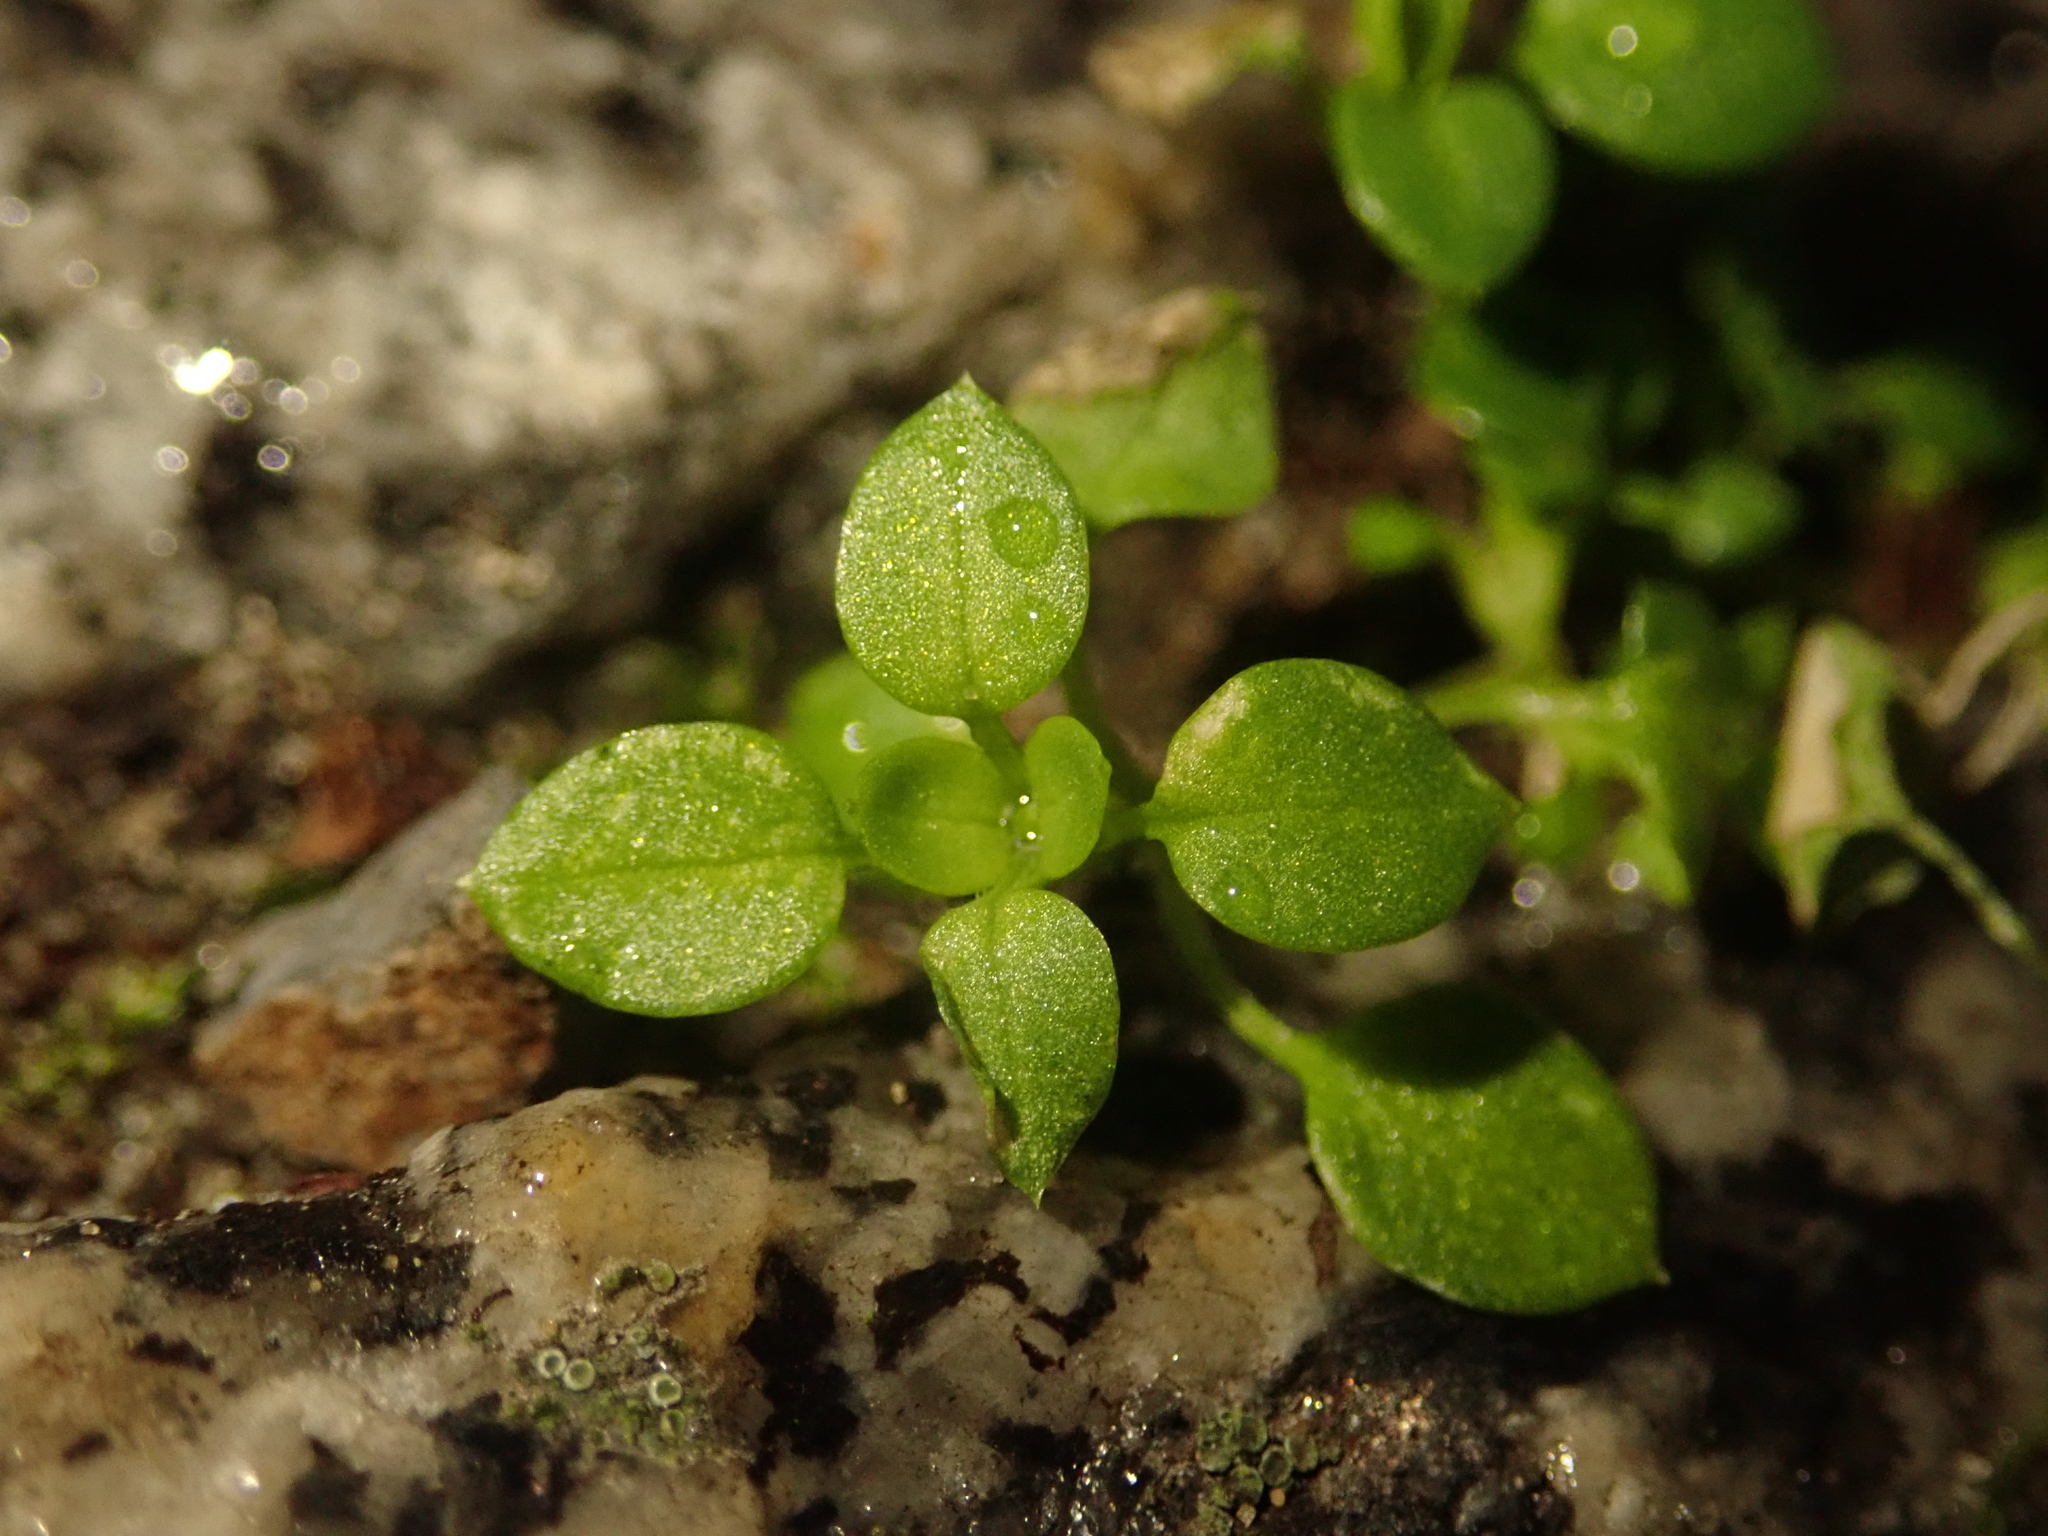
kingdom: Plantae
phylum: Tracheophyta
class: Magnoliopsida
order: Caryophyllales
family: Caryophyllaceae
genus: Stellaria
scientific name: Stellaria media
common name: Common chickweed
